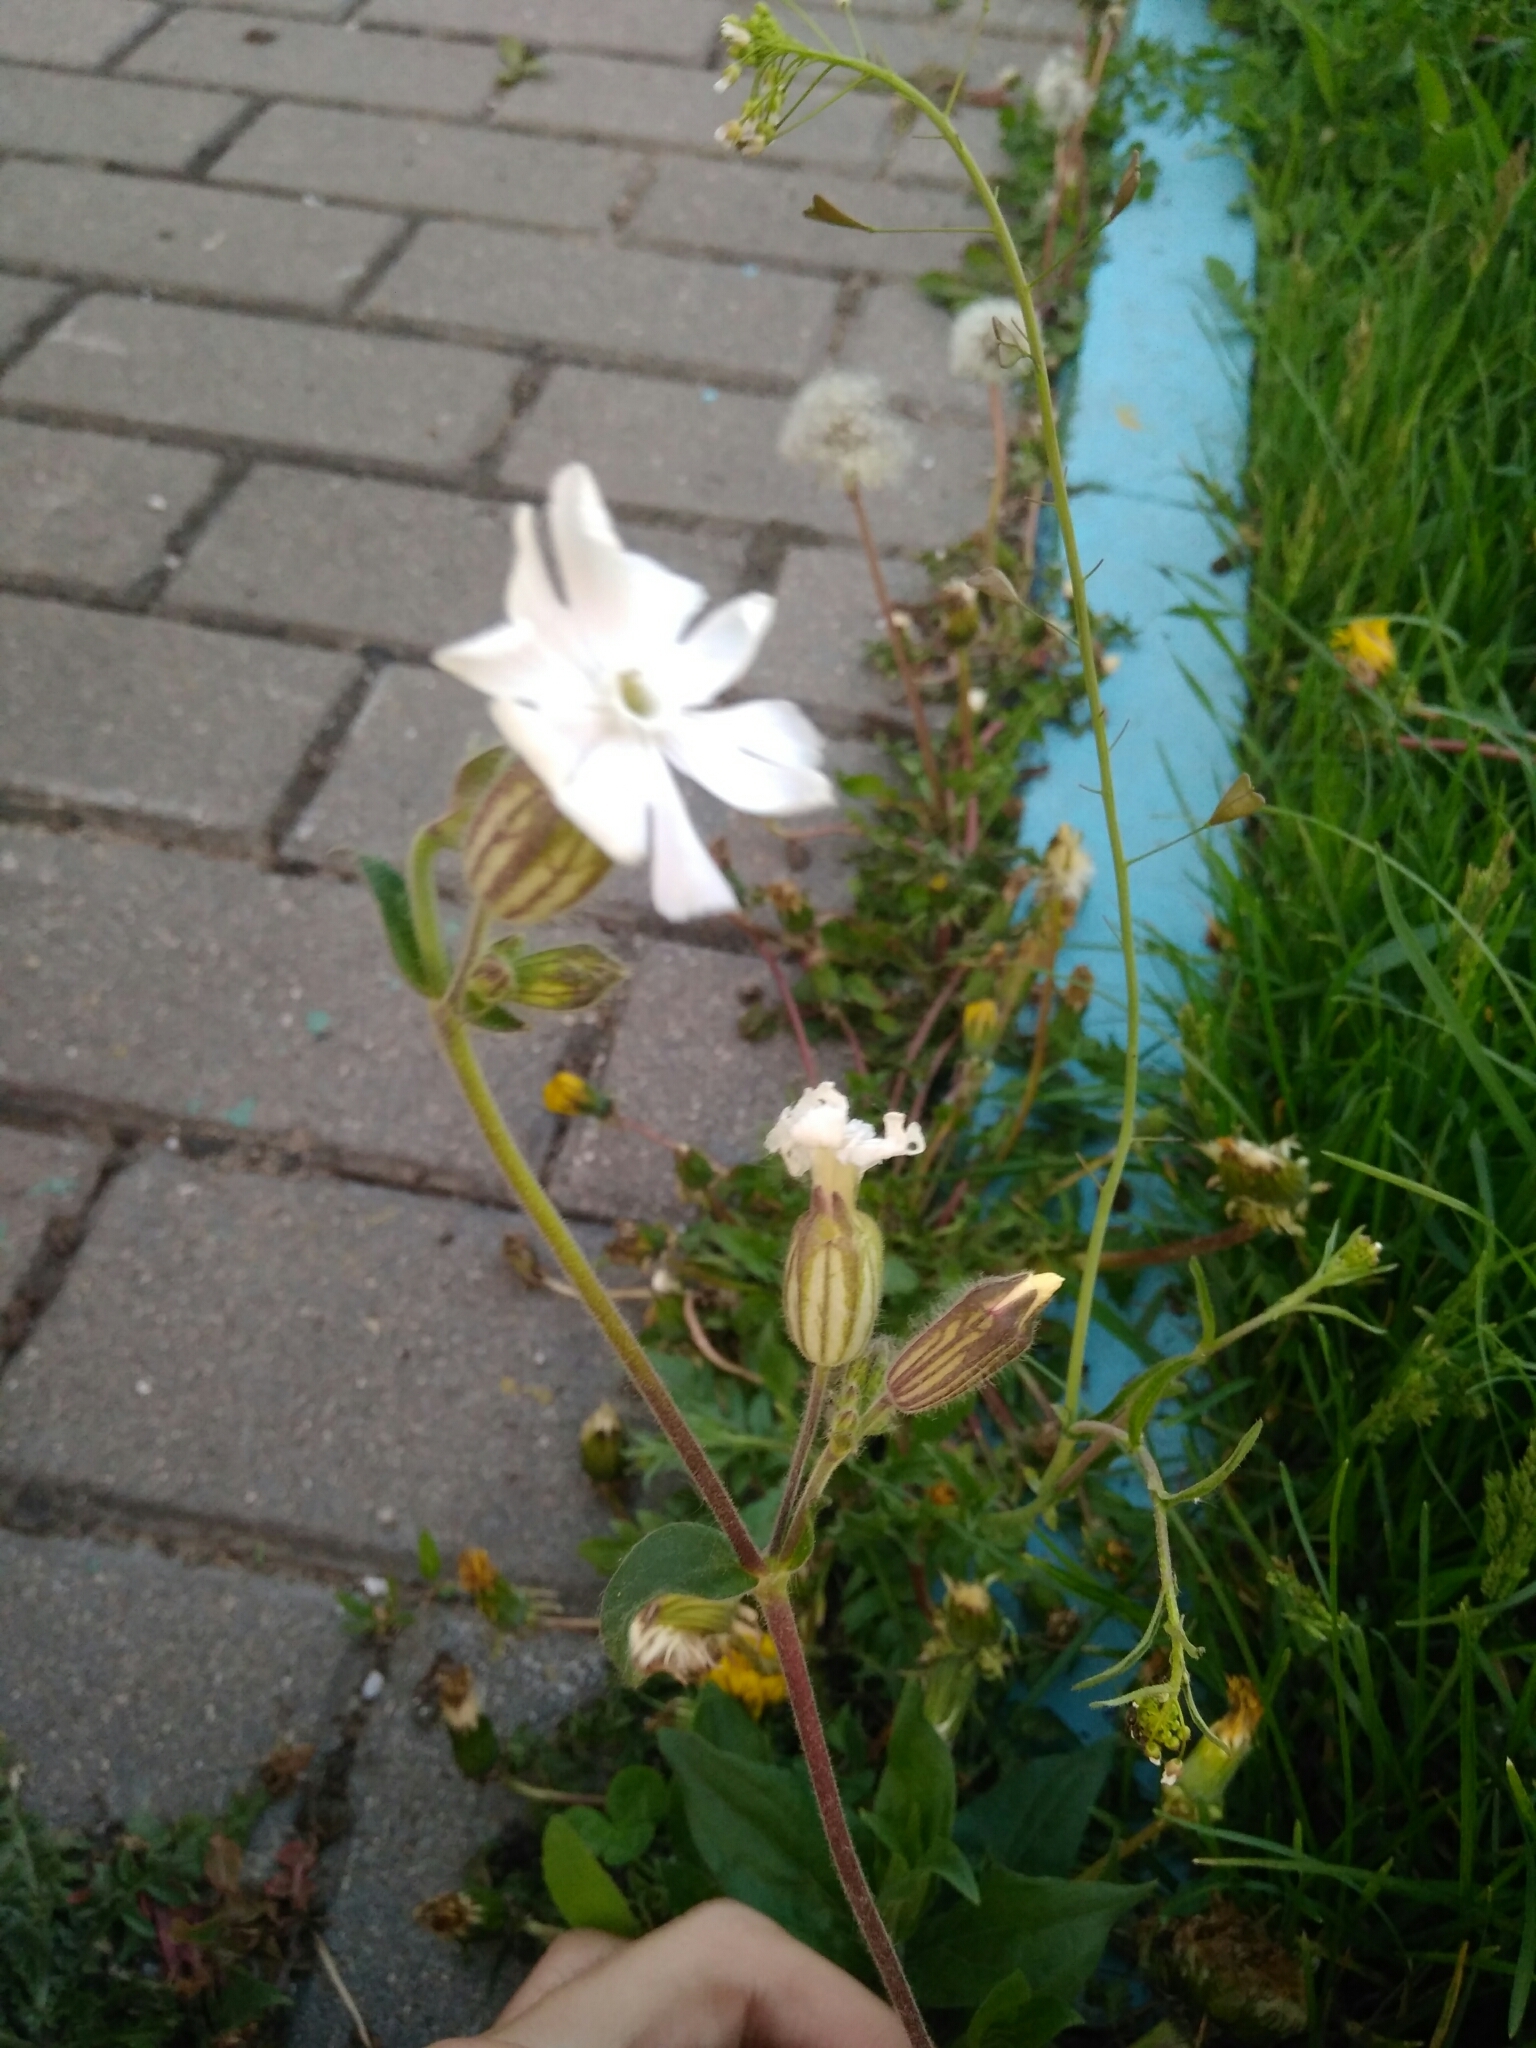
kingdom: Plantae
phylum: Tracheophyta
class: Magnoliopsida
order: Caryophyllales
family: Caryophyllaceae
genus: Silene
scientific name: Silene latifolia
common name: White campion
